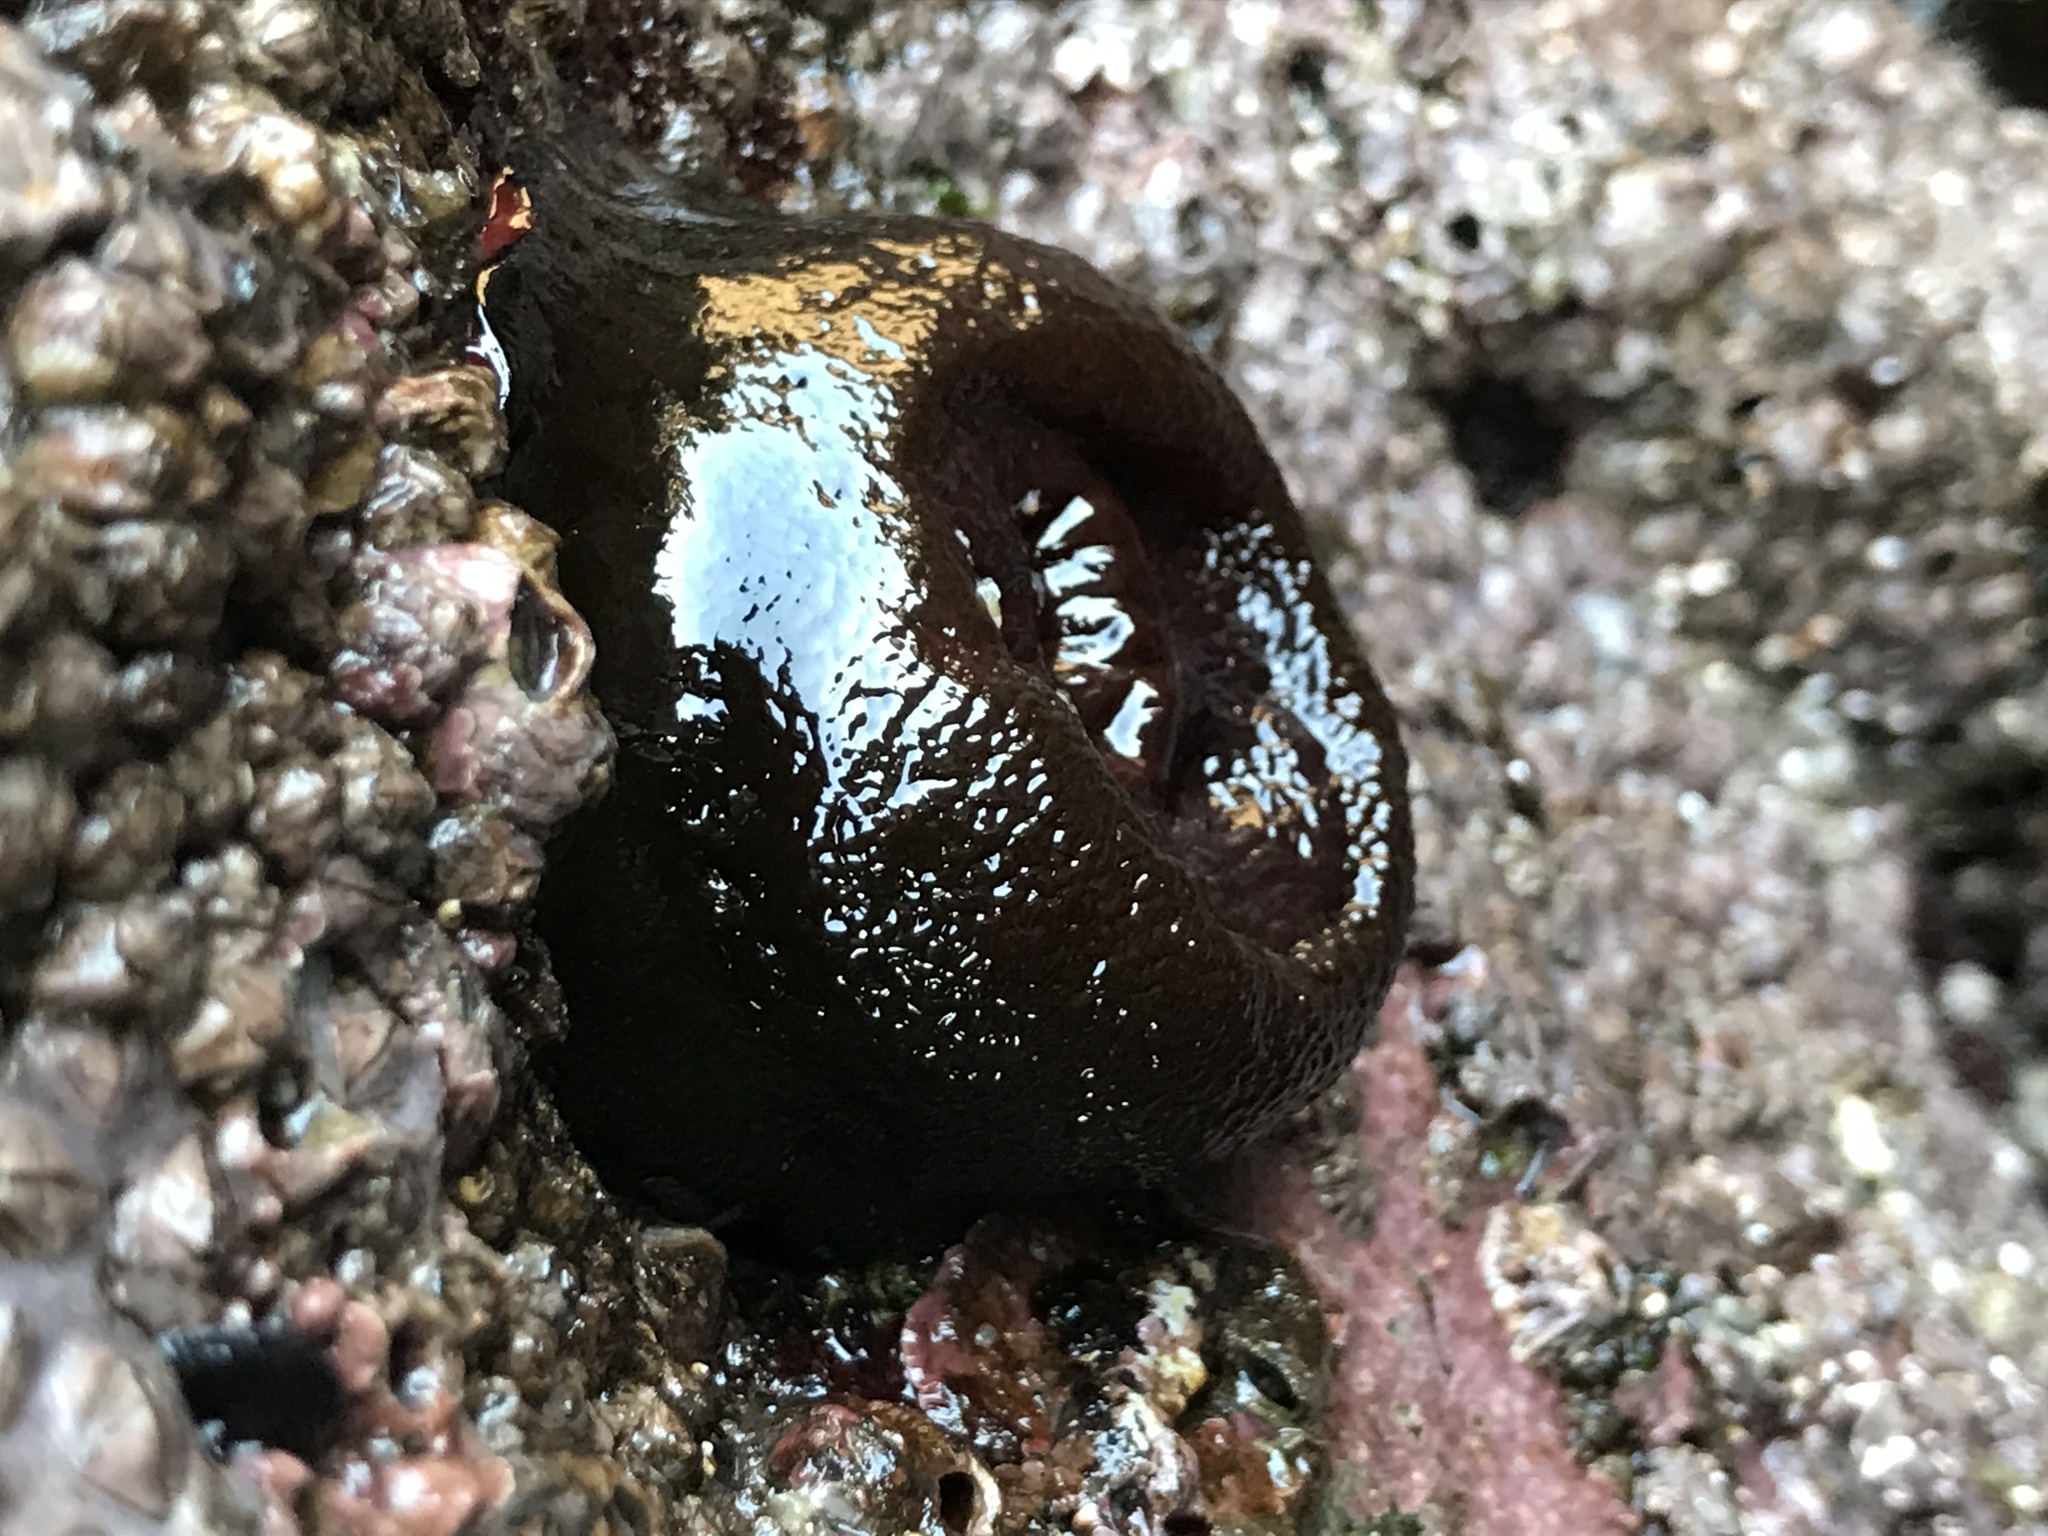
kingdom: Animalia
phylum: Cnidaria
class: Anthozoa
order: Actiniaria
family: Actiniidae
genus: Phymactis
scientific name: Phymactis papillosa
